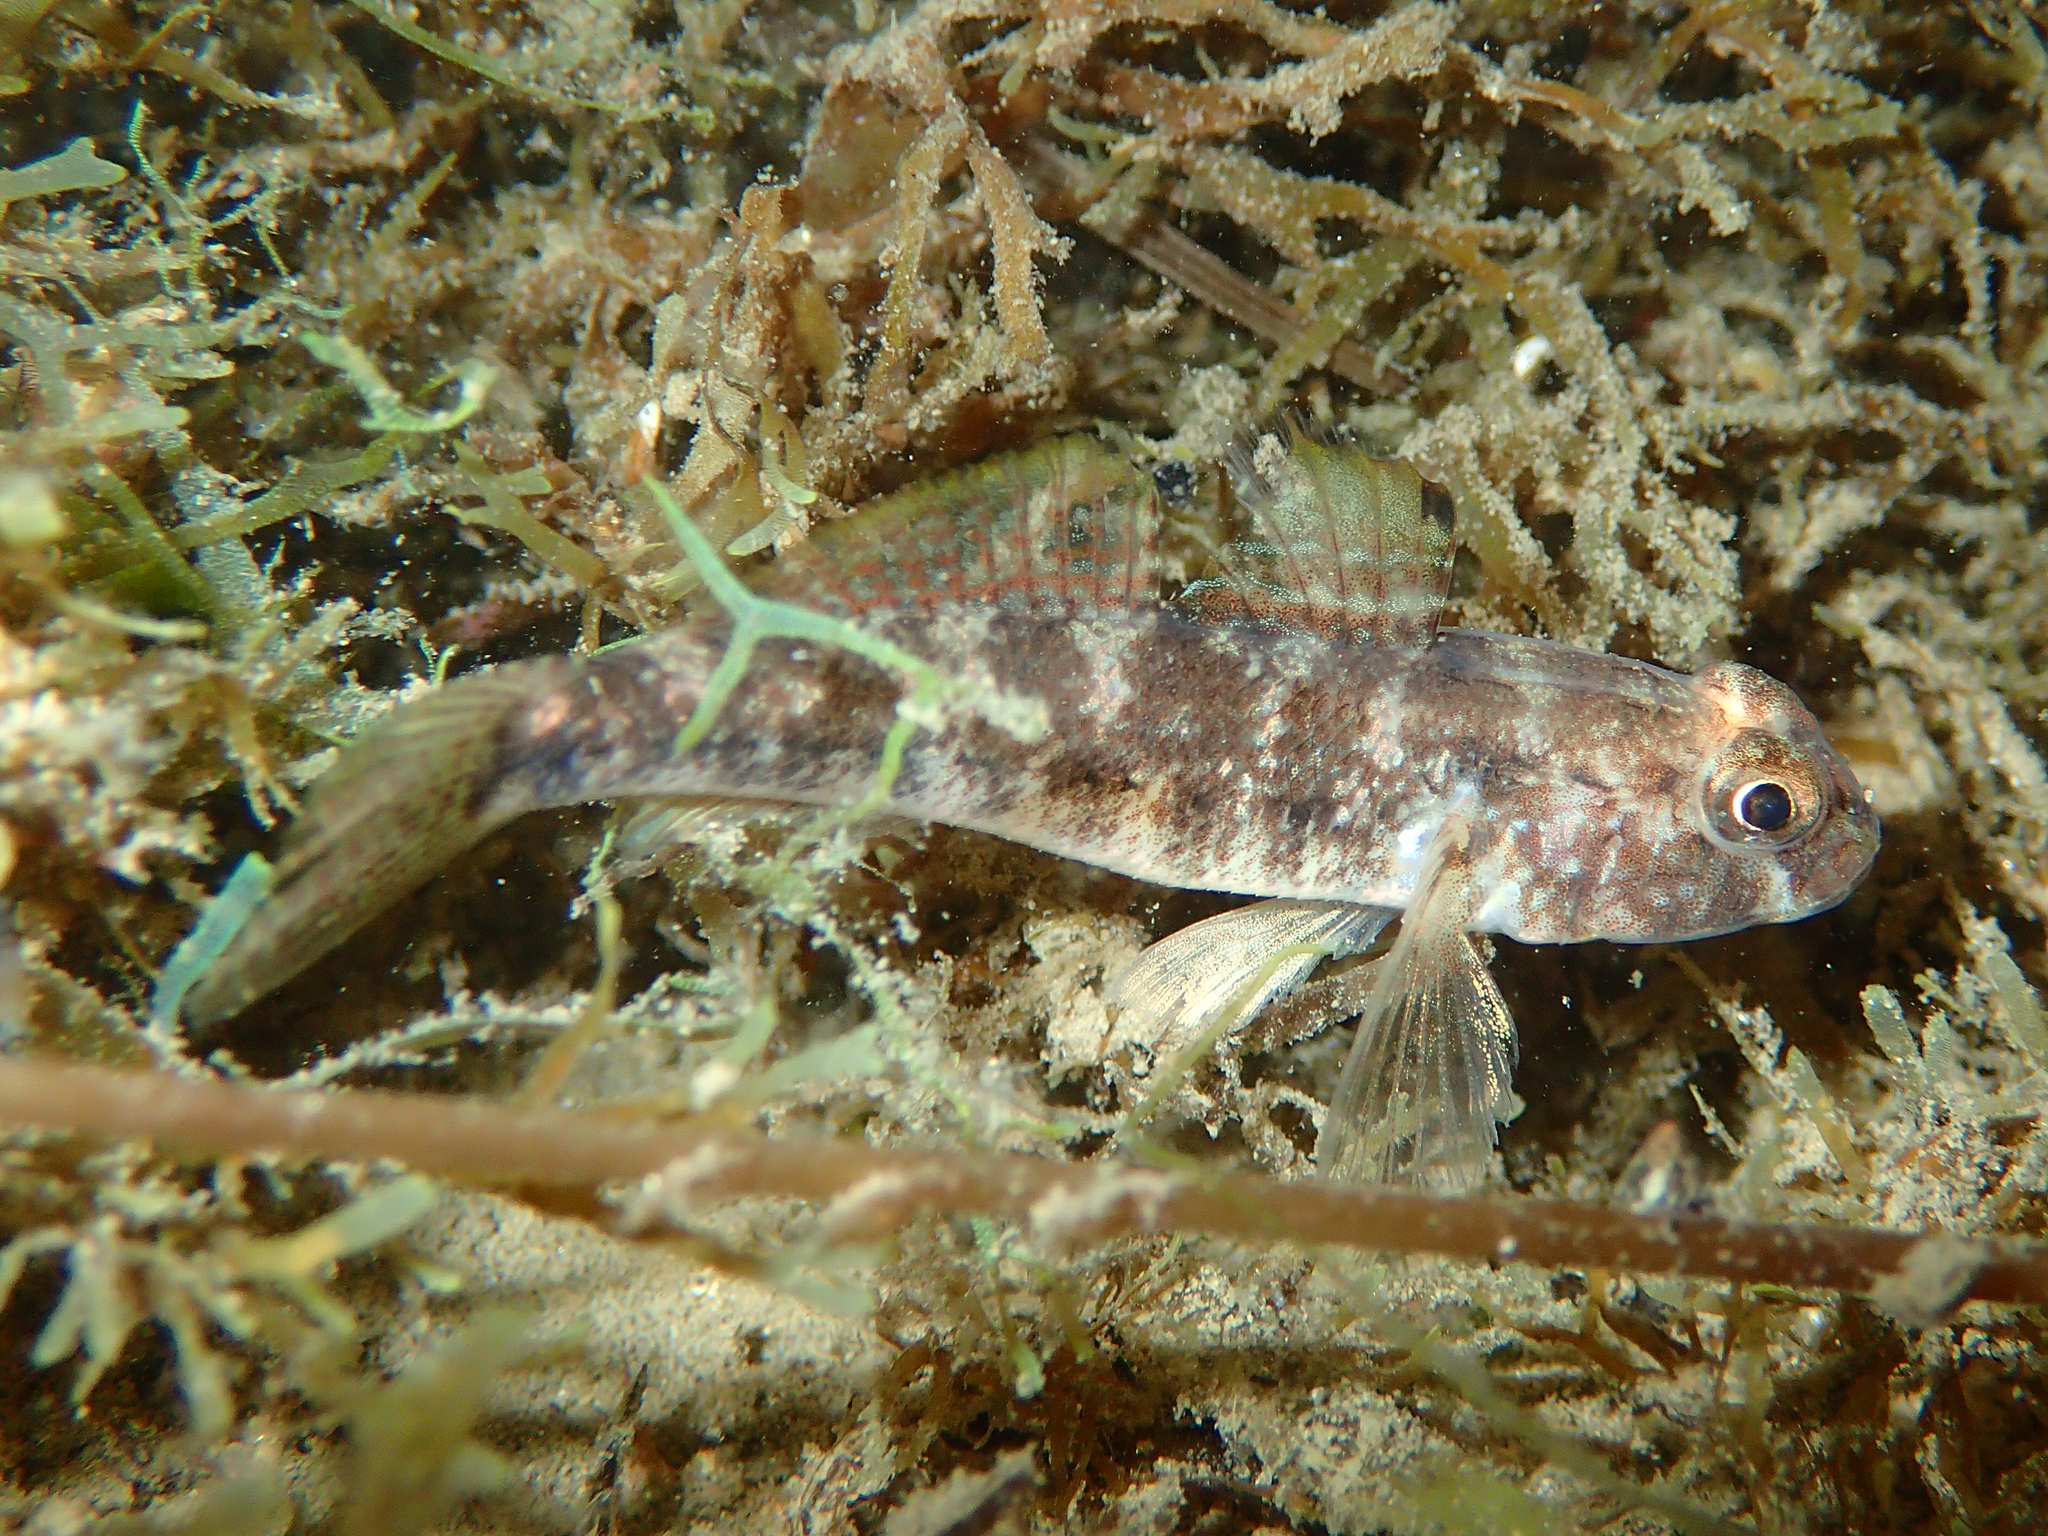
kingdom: Animalia
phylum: Chordata
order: Perciformes
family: Gobiidae
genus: Gobius
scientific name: Gobius niger
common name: Black goby
